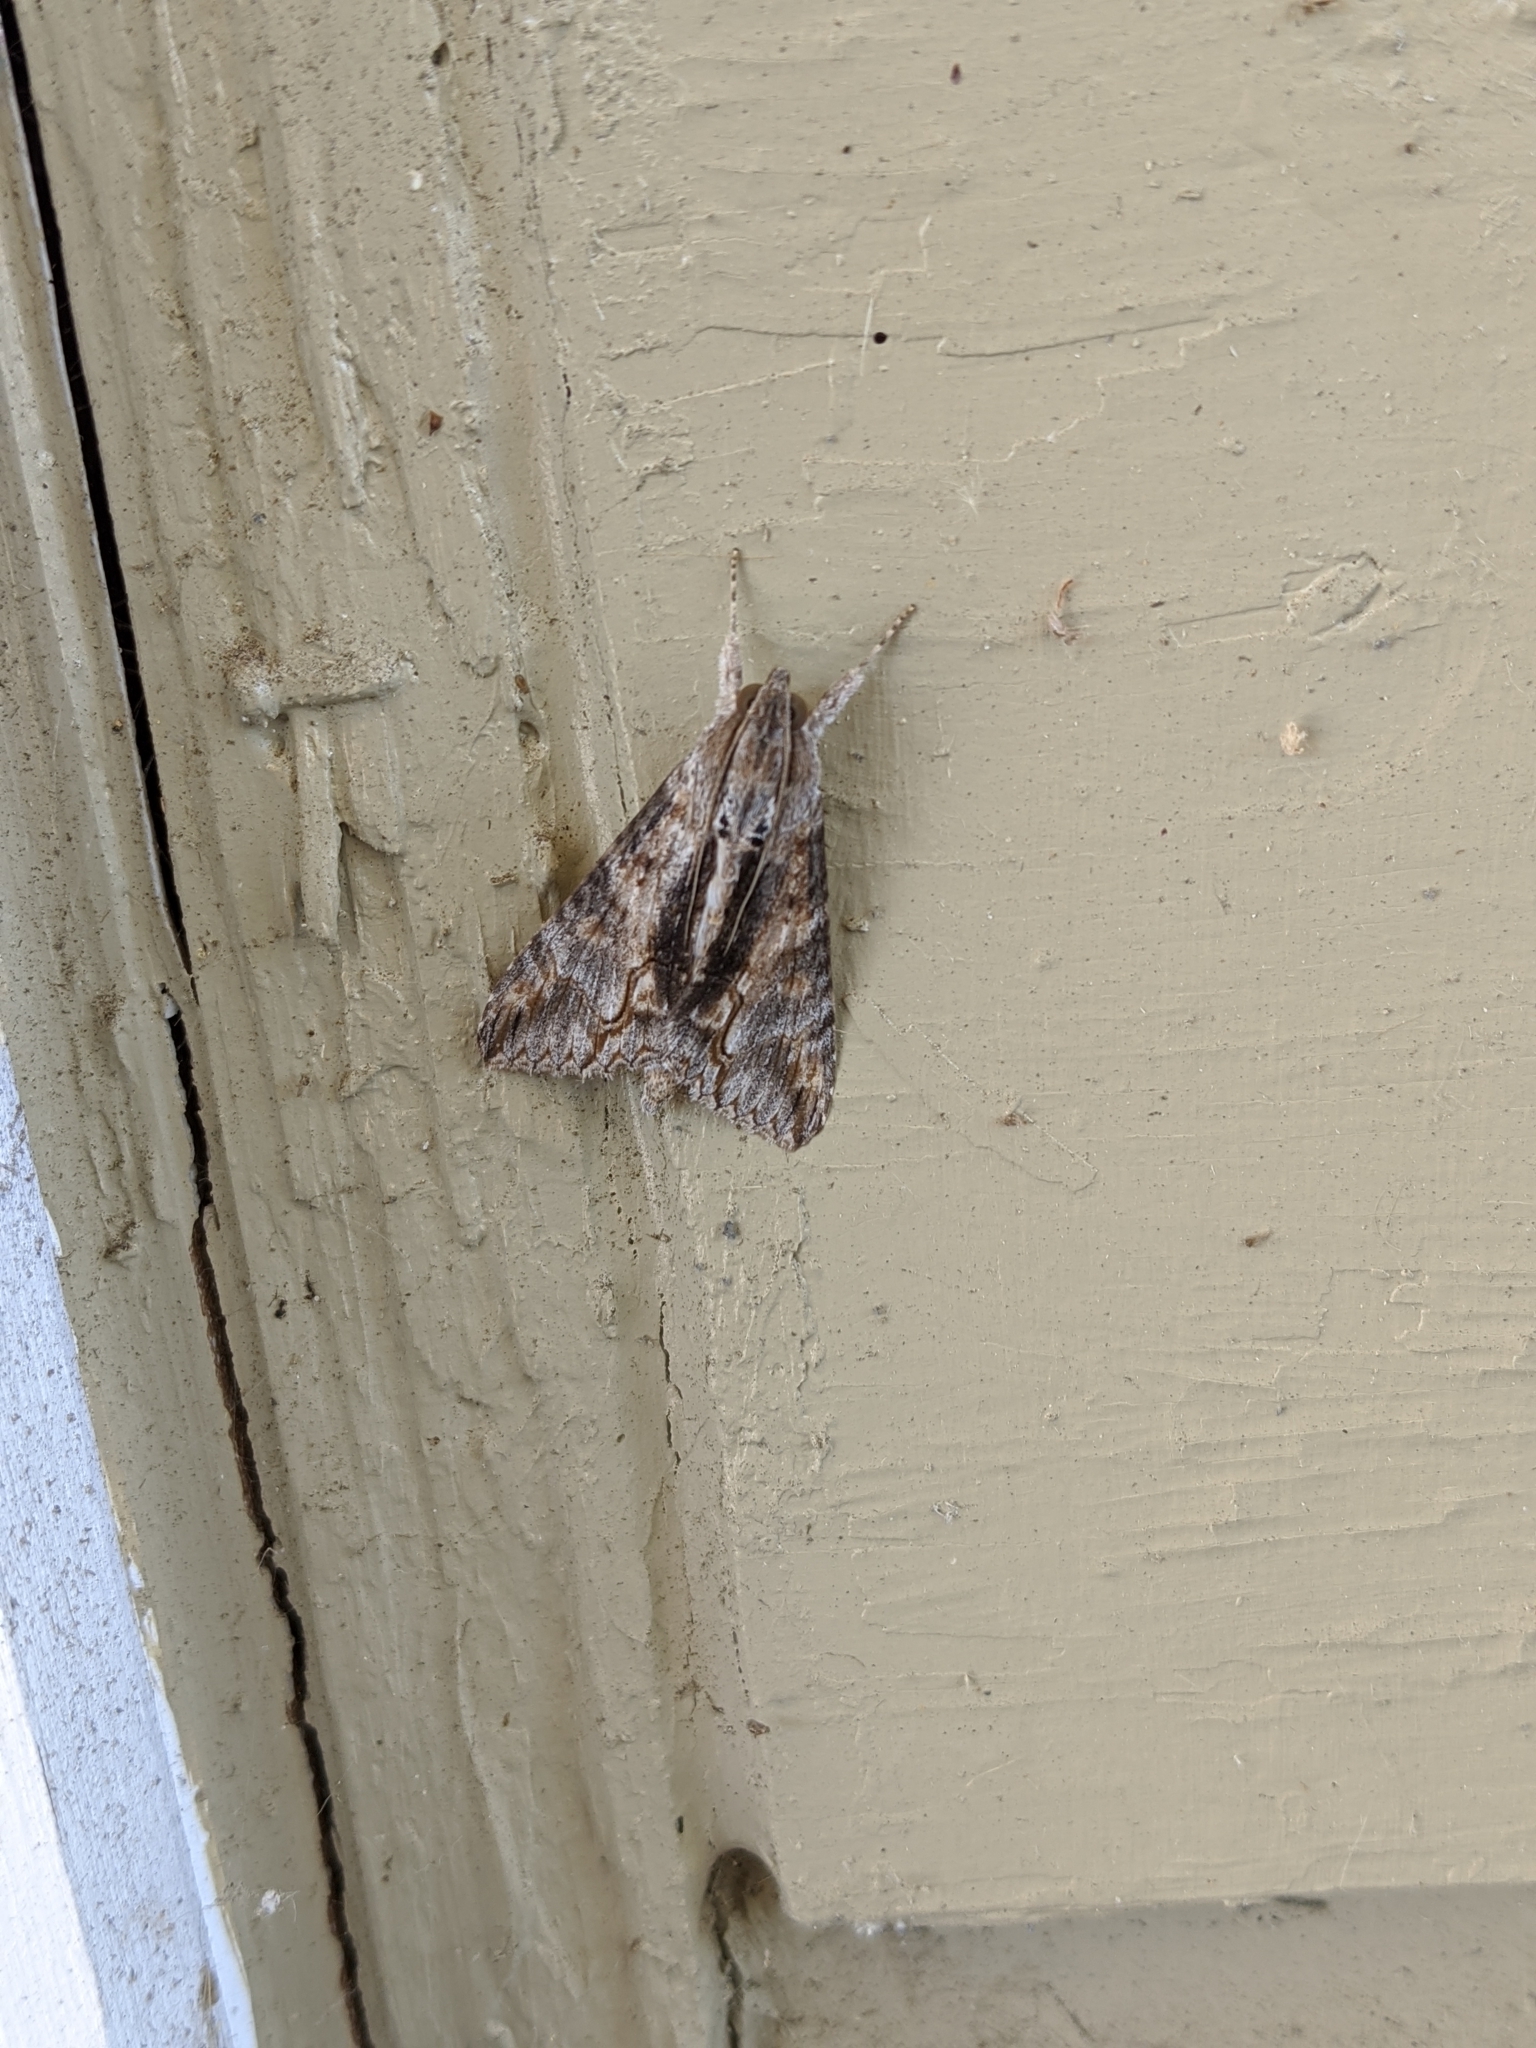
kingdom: Animalia
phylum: Arthropoda
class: Insecta
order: Lepidoptera
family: Erebidae
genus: Melipotis
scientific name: Melipotis acontioides
